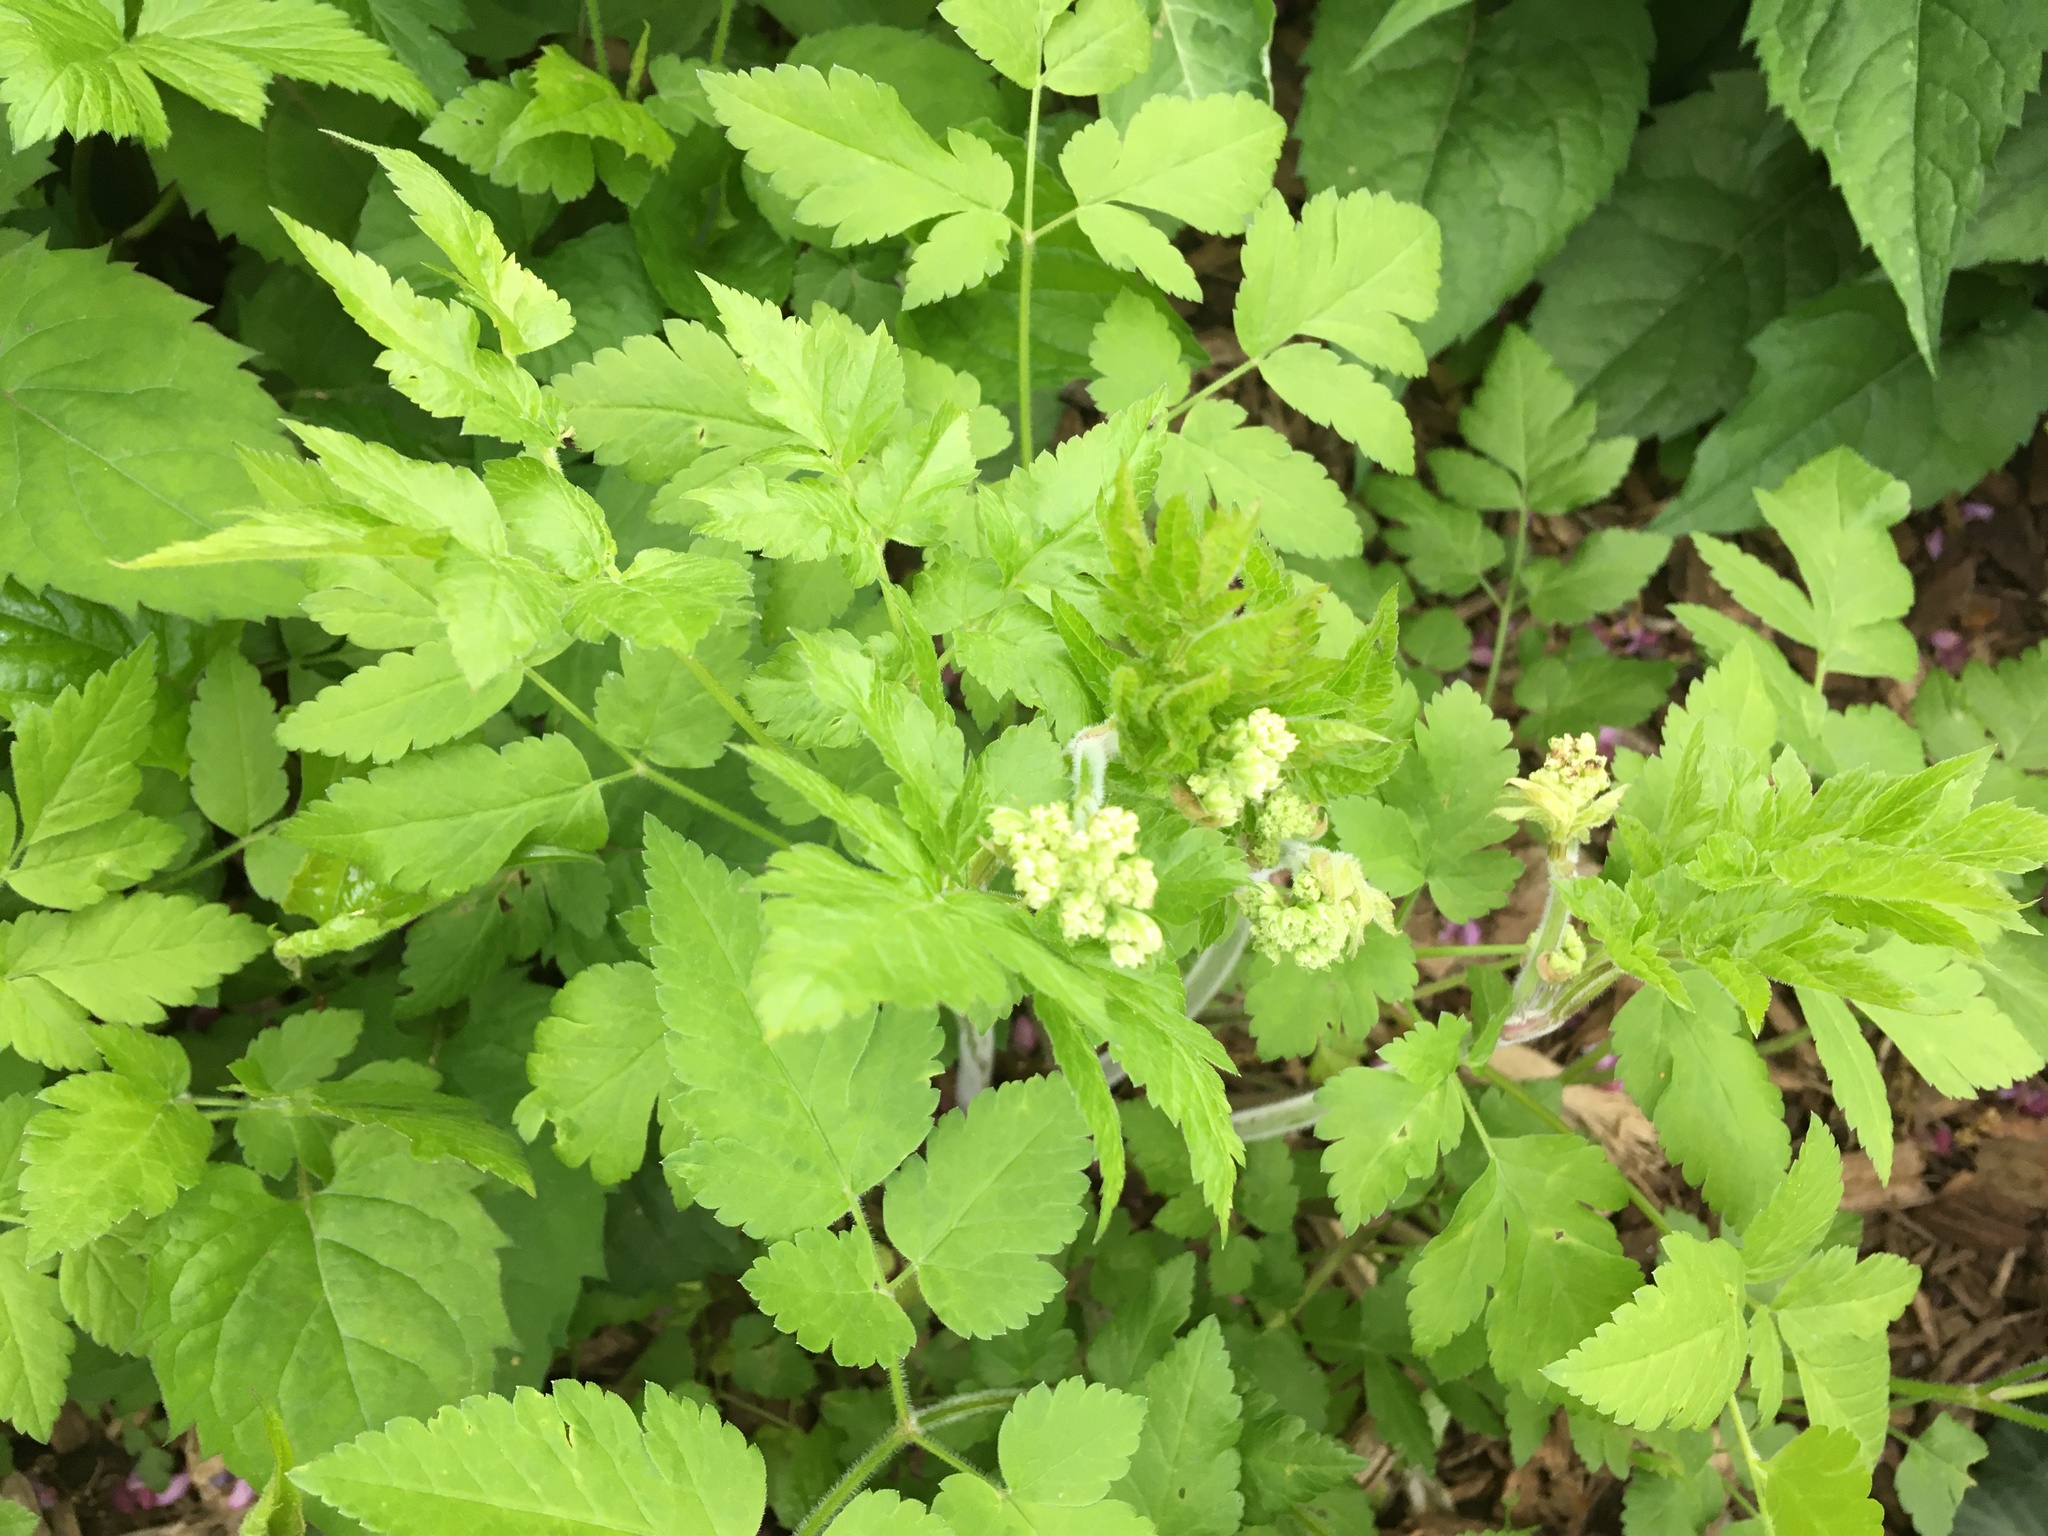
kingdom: Plantae
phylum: Tracheophyta
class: Magnoliopsida
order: Apiales
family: Apiaceae
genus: Osmorhiza
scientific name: Osmorhiza claytonii
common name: Hairy sweet cicely
